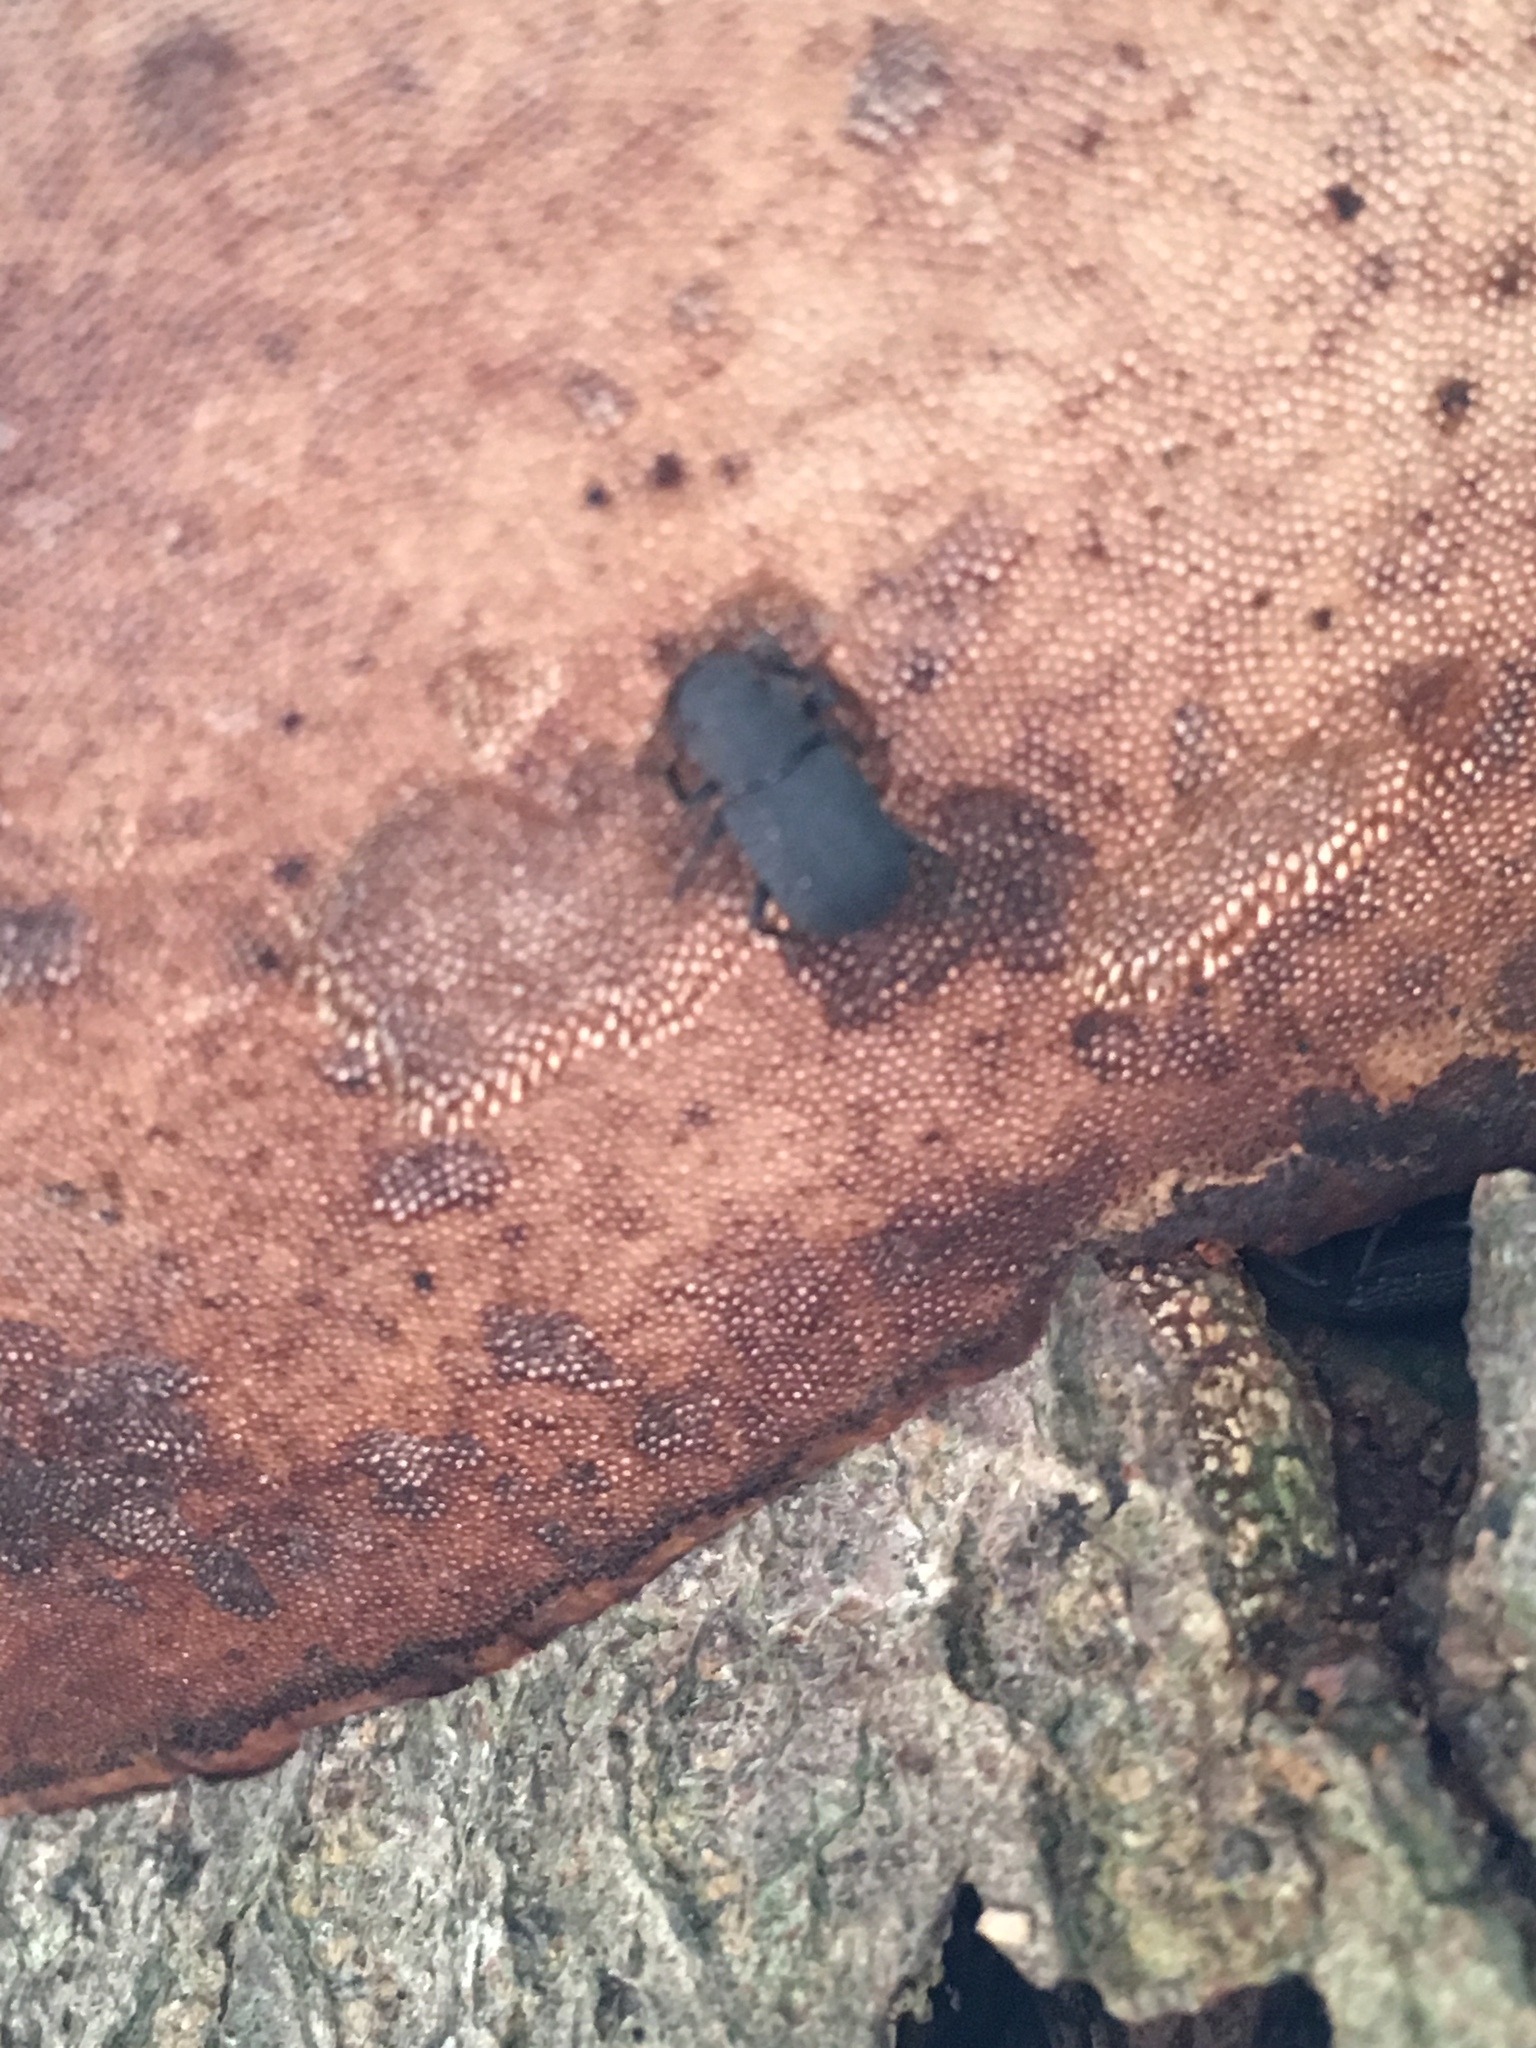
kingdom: Animalia
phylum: Arthropoda
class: Insecta
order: Coleoptera
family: Tenebrionidae
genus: Bolitophagus
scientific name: Bolitophagus reticulatus
